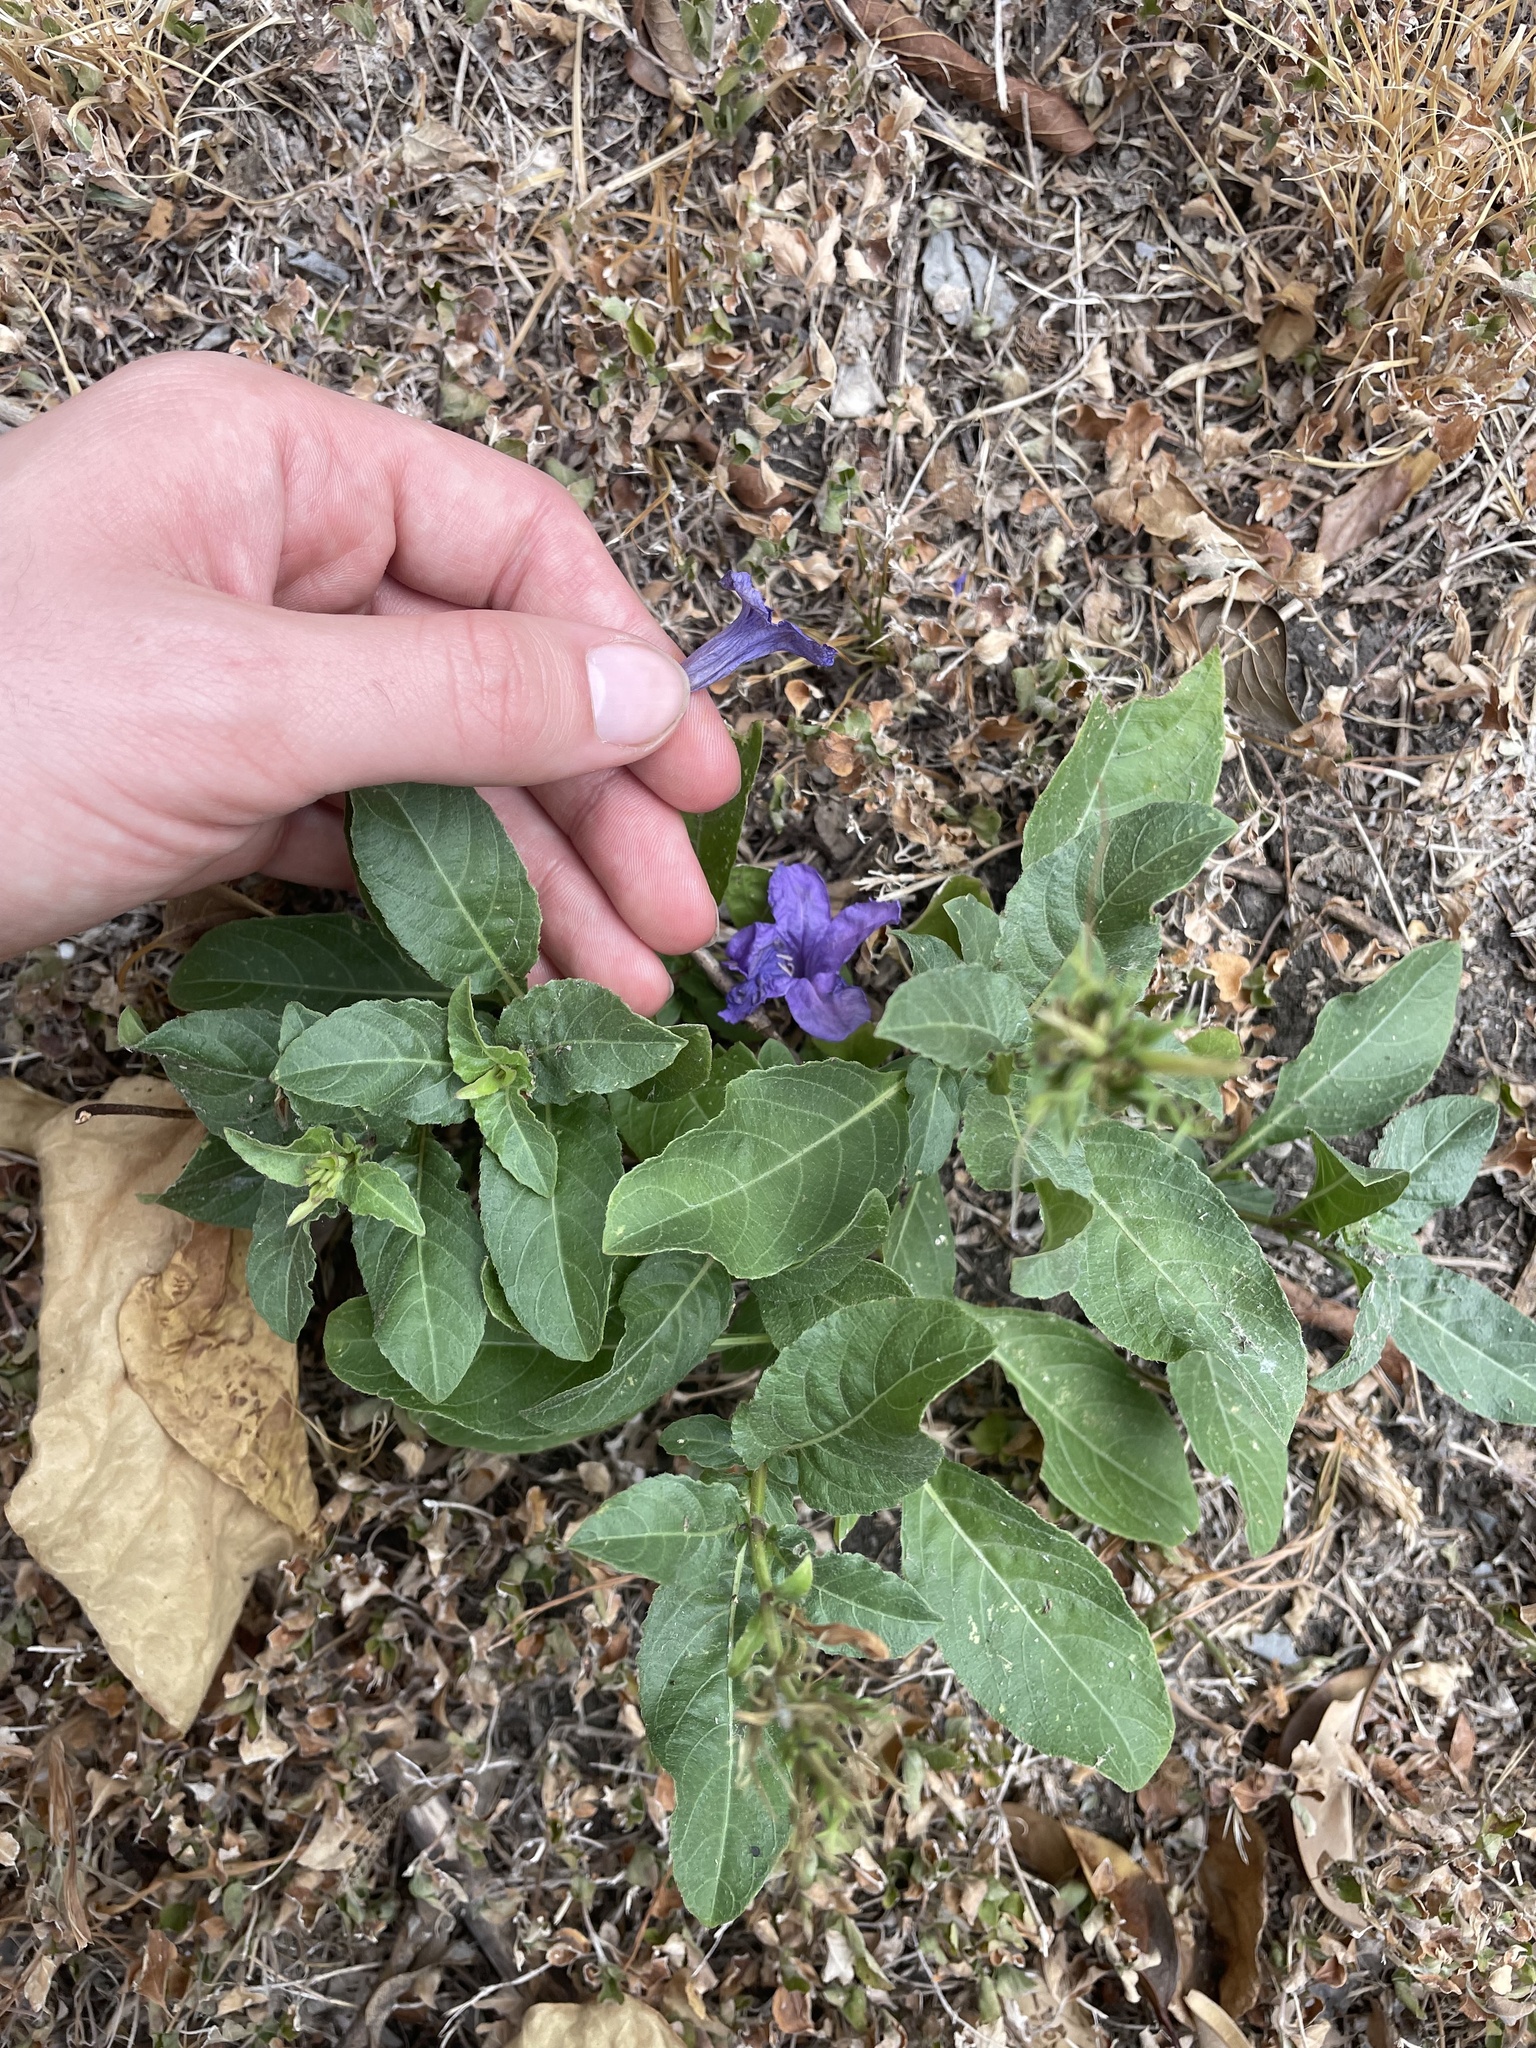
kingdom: Plantae
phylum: Tracheophyta
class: Magnoliopsida
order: Lamiales
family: Acanthaceae
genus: Ruellia
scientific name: Ruellia ciliatiflora
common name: Hairyflower wild petunia
